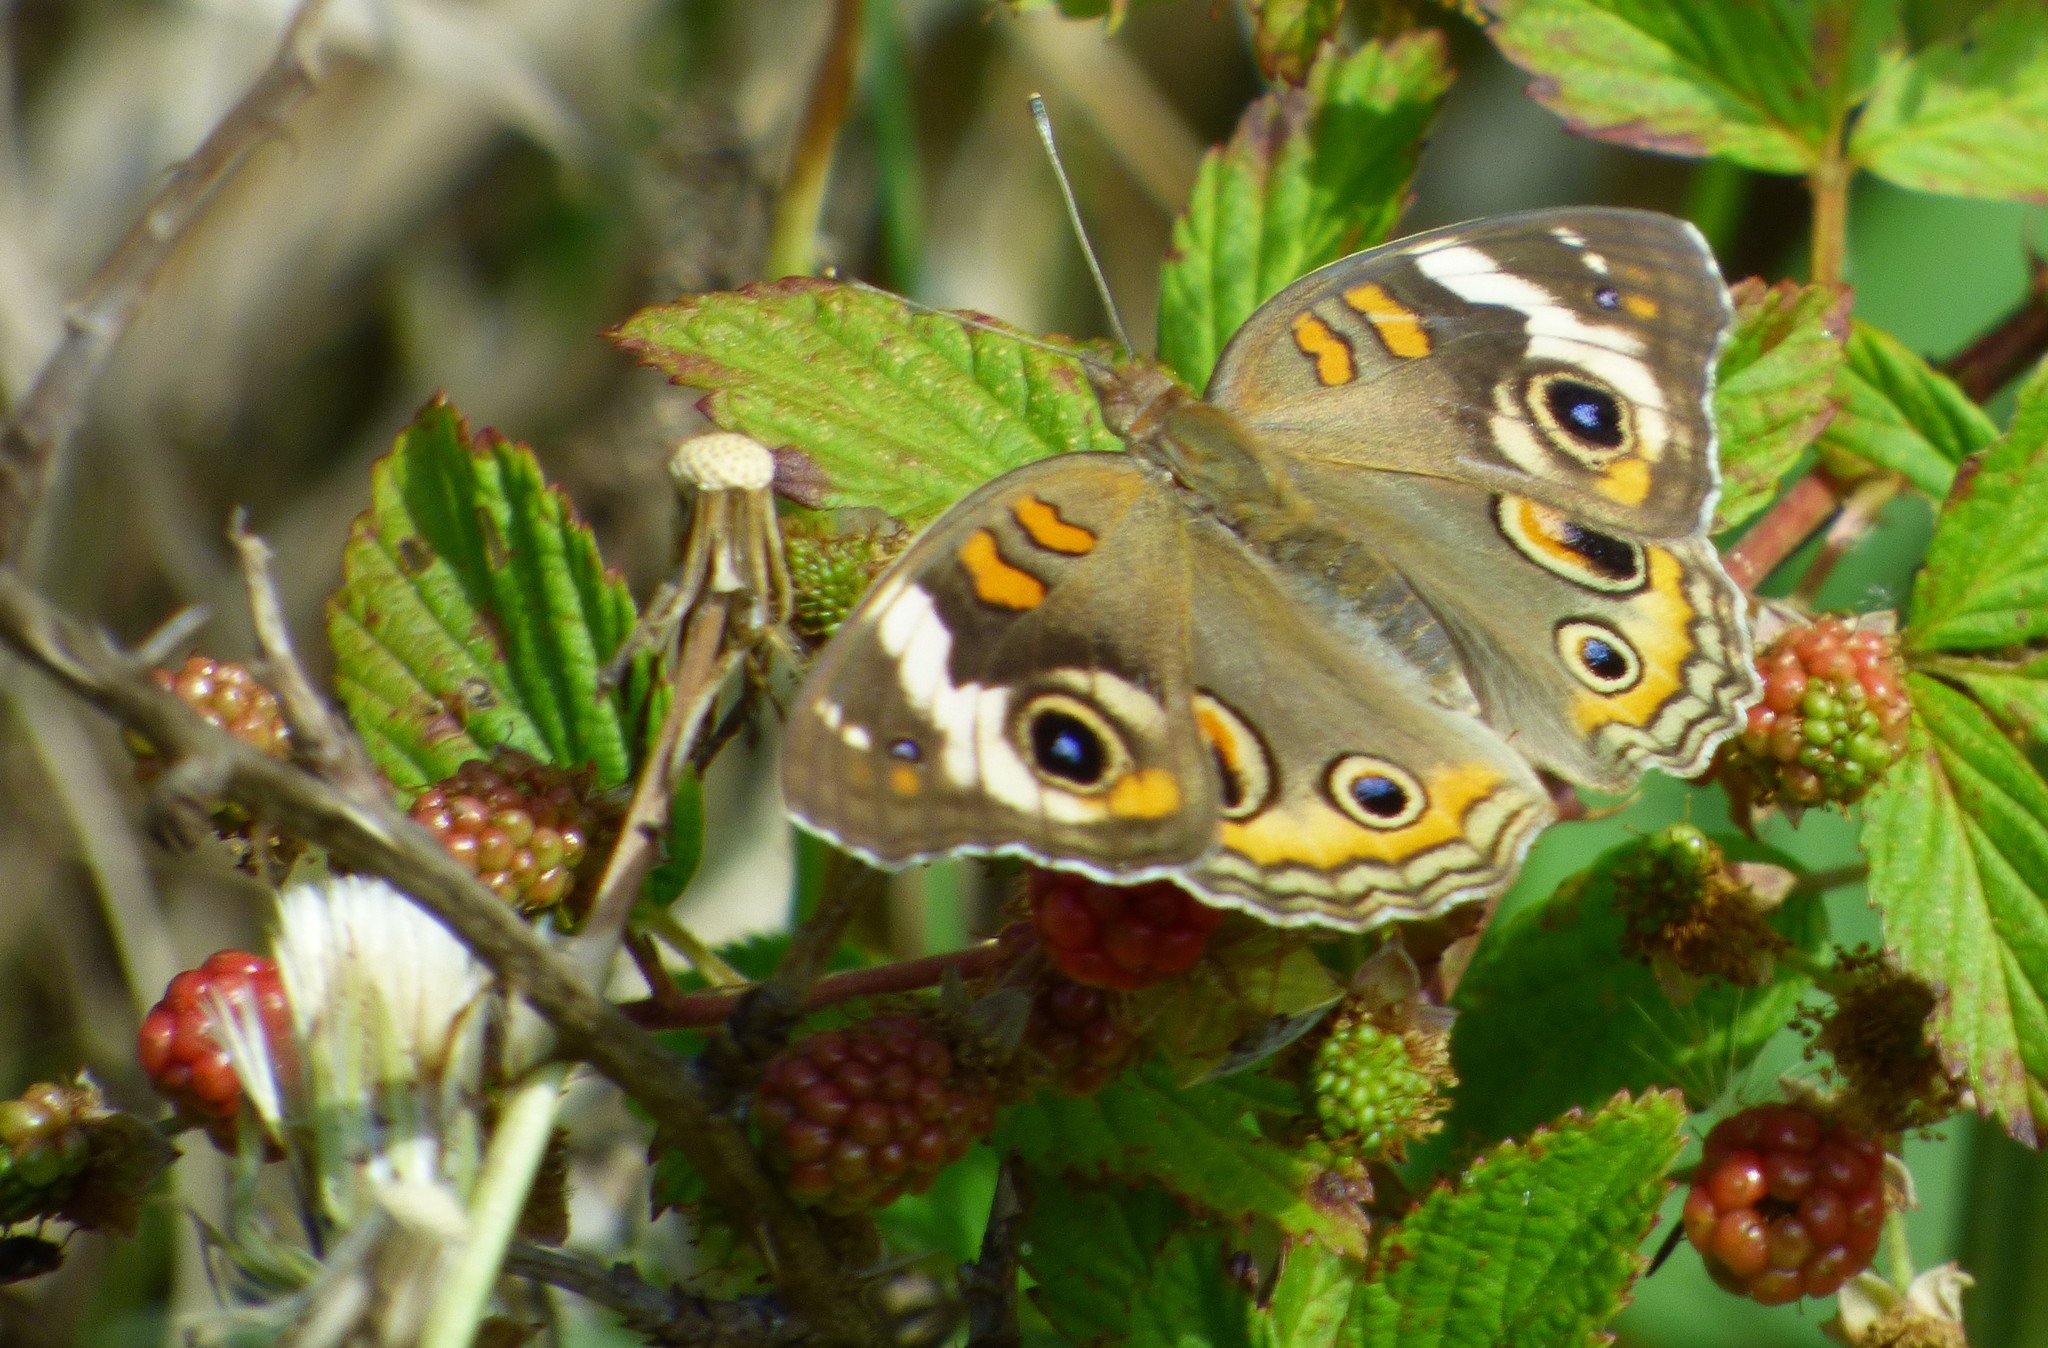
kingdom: Animalia
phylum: Arthropoda
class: Insecta
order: Lepidoptera
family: Nymphalidae
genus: Junonia
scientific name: Junonia coenia
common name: Common buckeye
